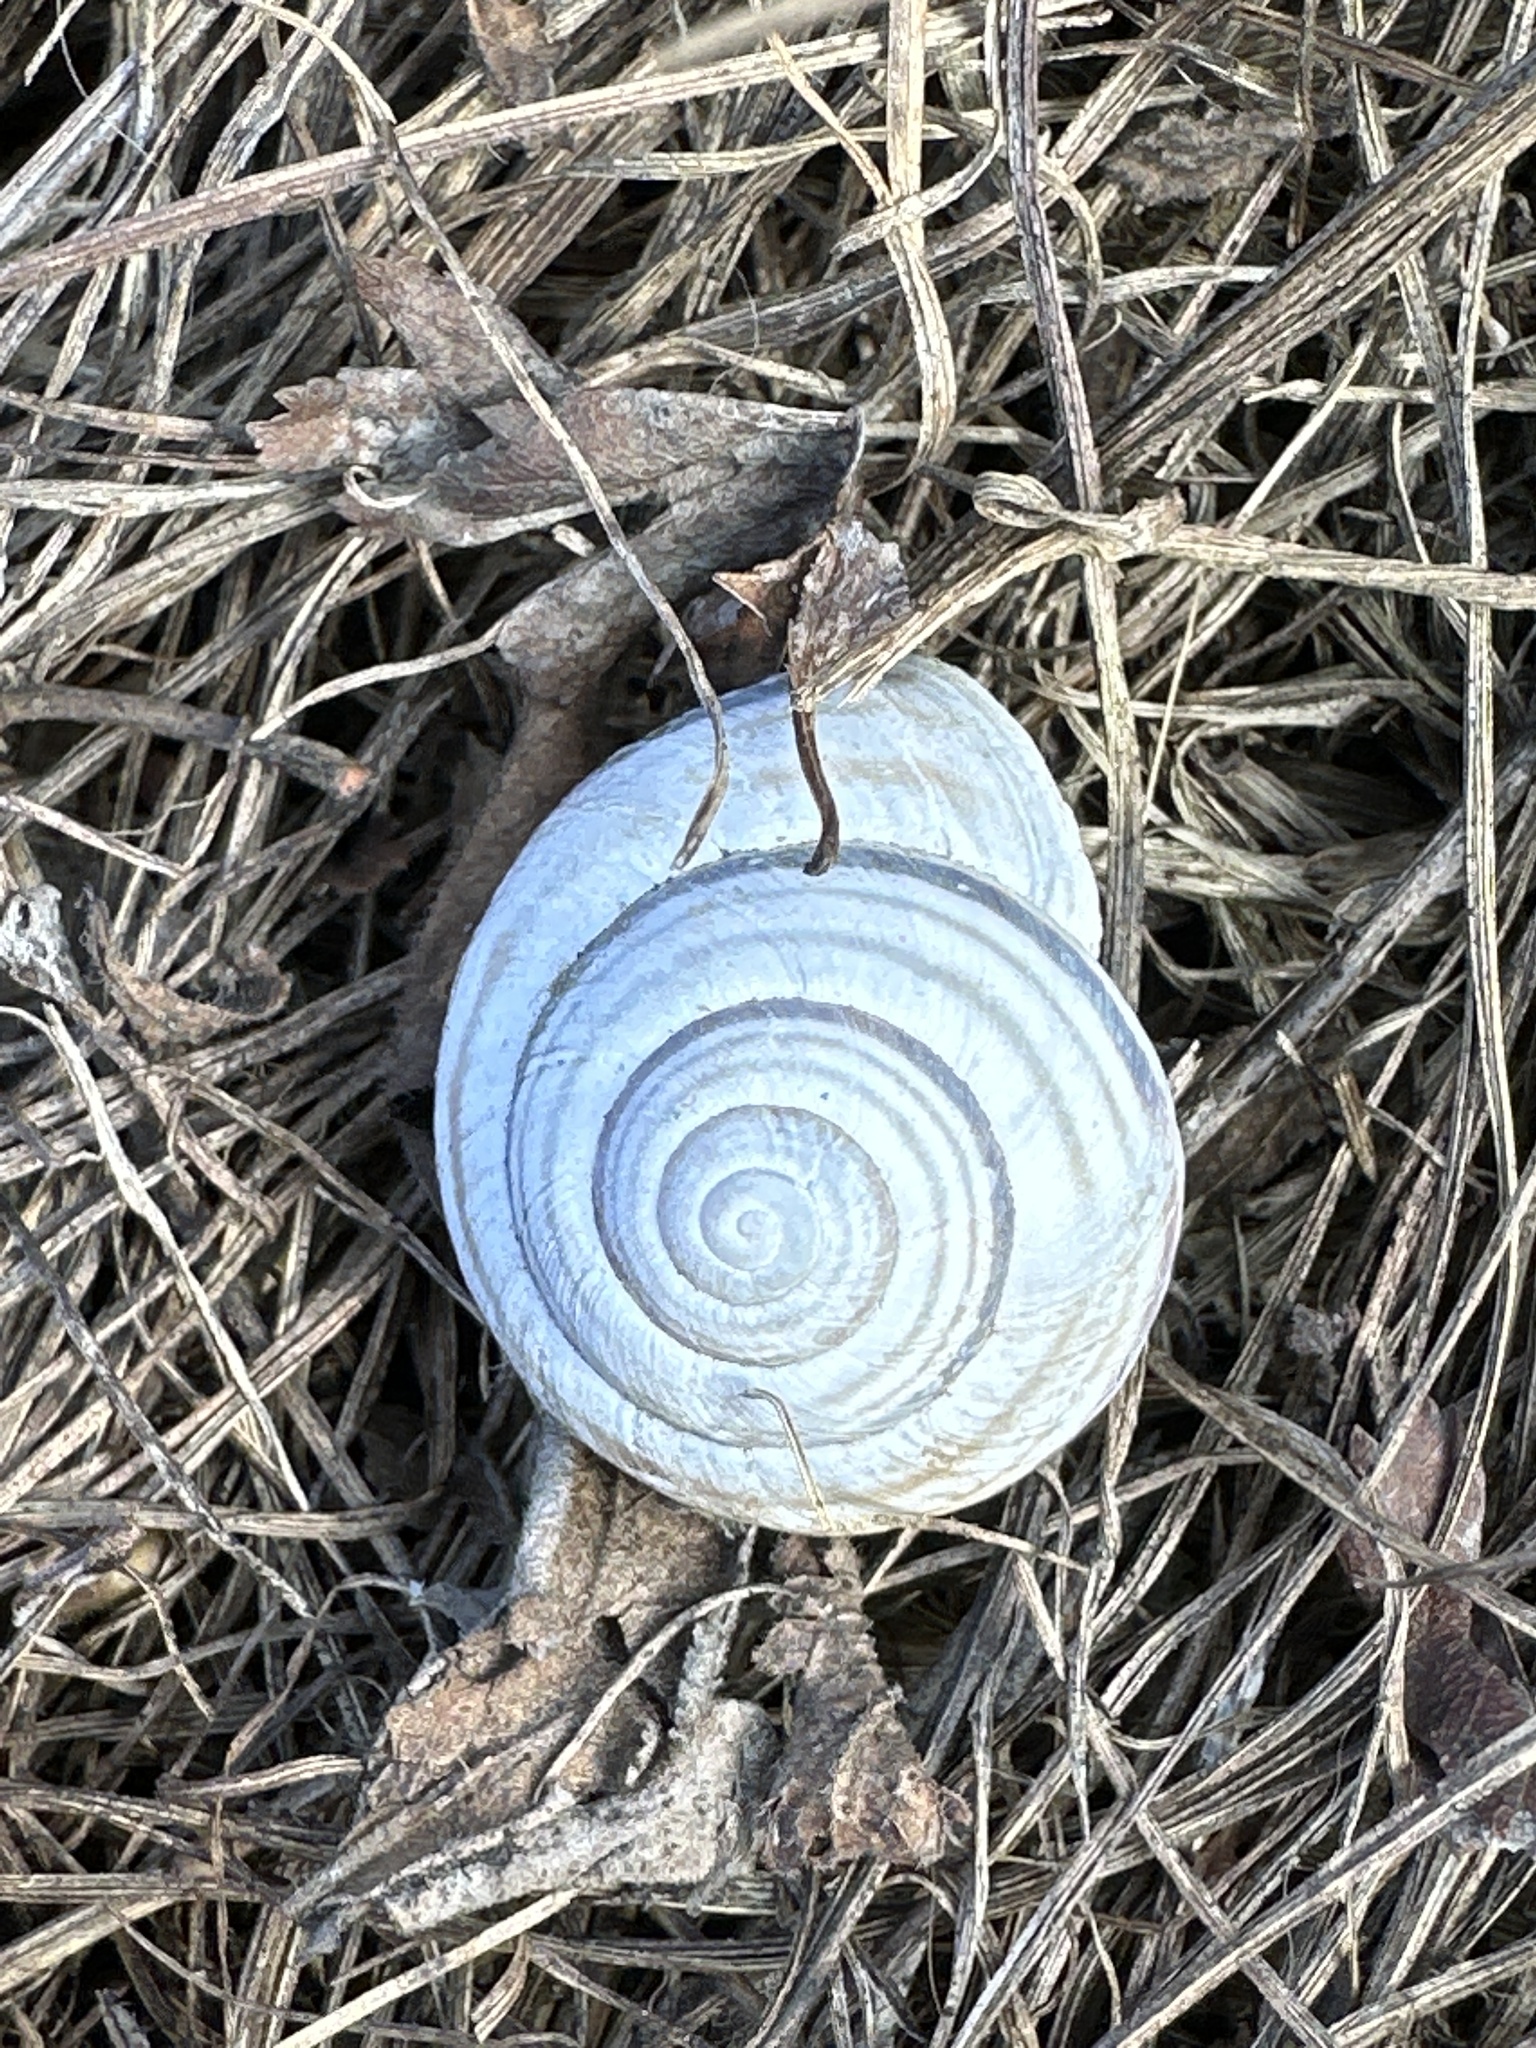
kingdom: Animalia
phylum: Mollusca
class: Gastropoda
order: Stylommatophora
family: Helicidae
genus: Caucasotachea
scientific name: Caucasotachea vindobonensis
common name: European helicid land snail
